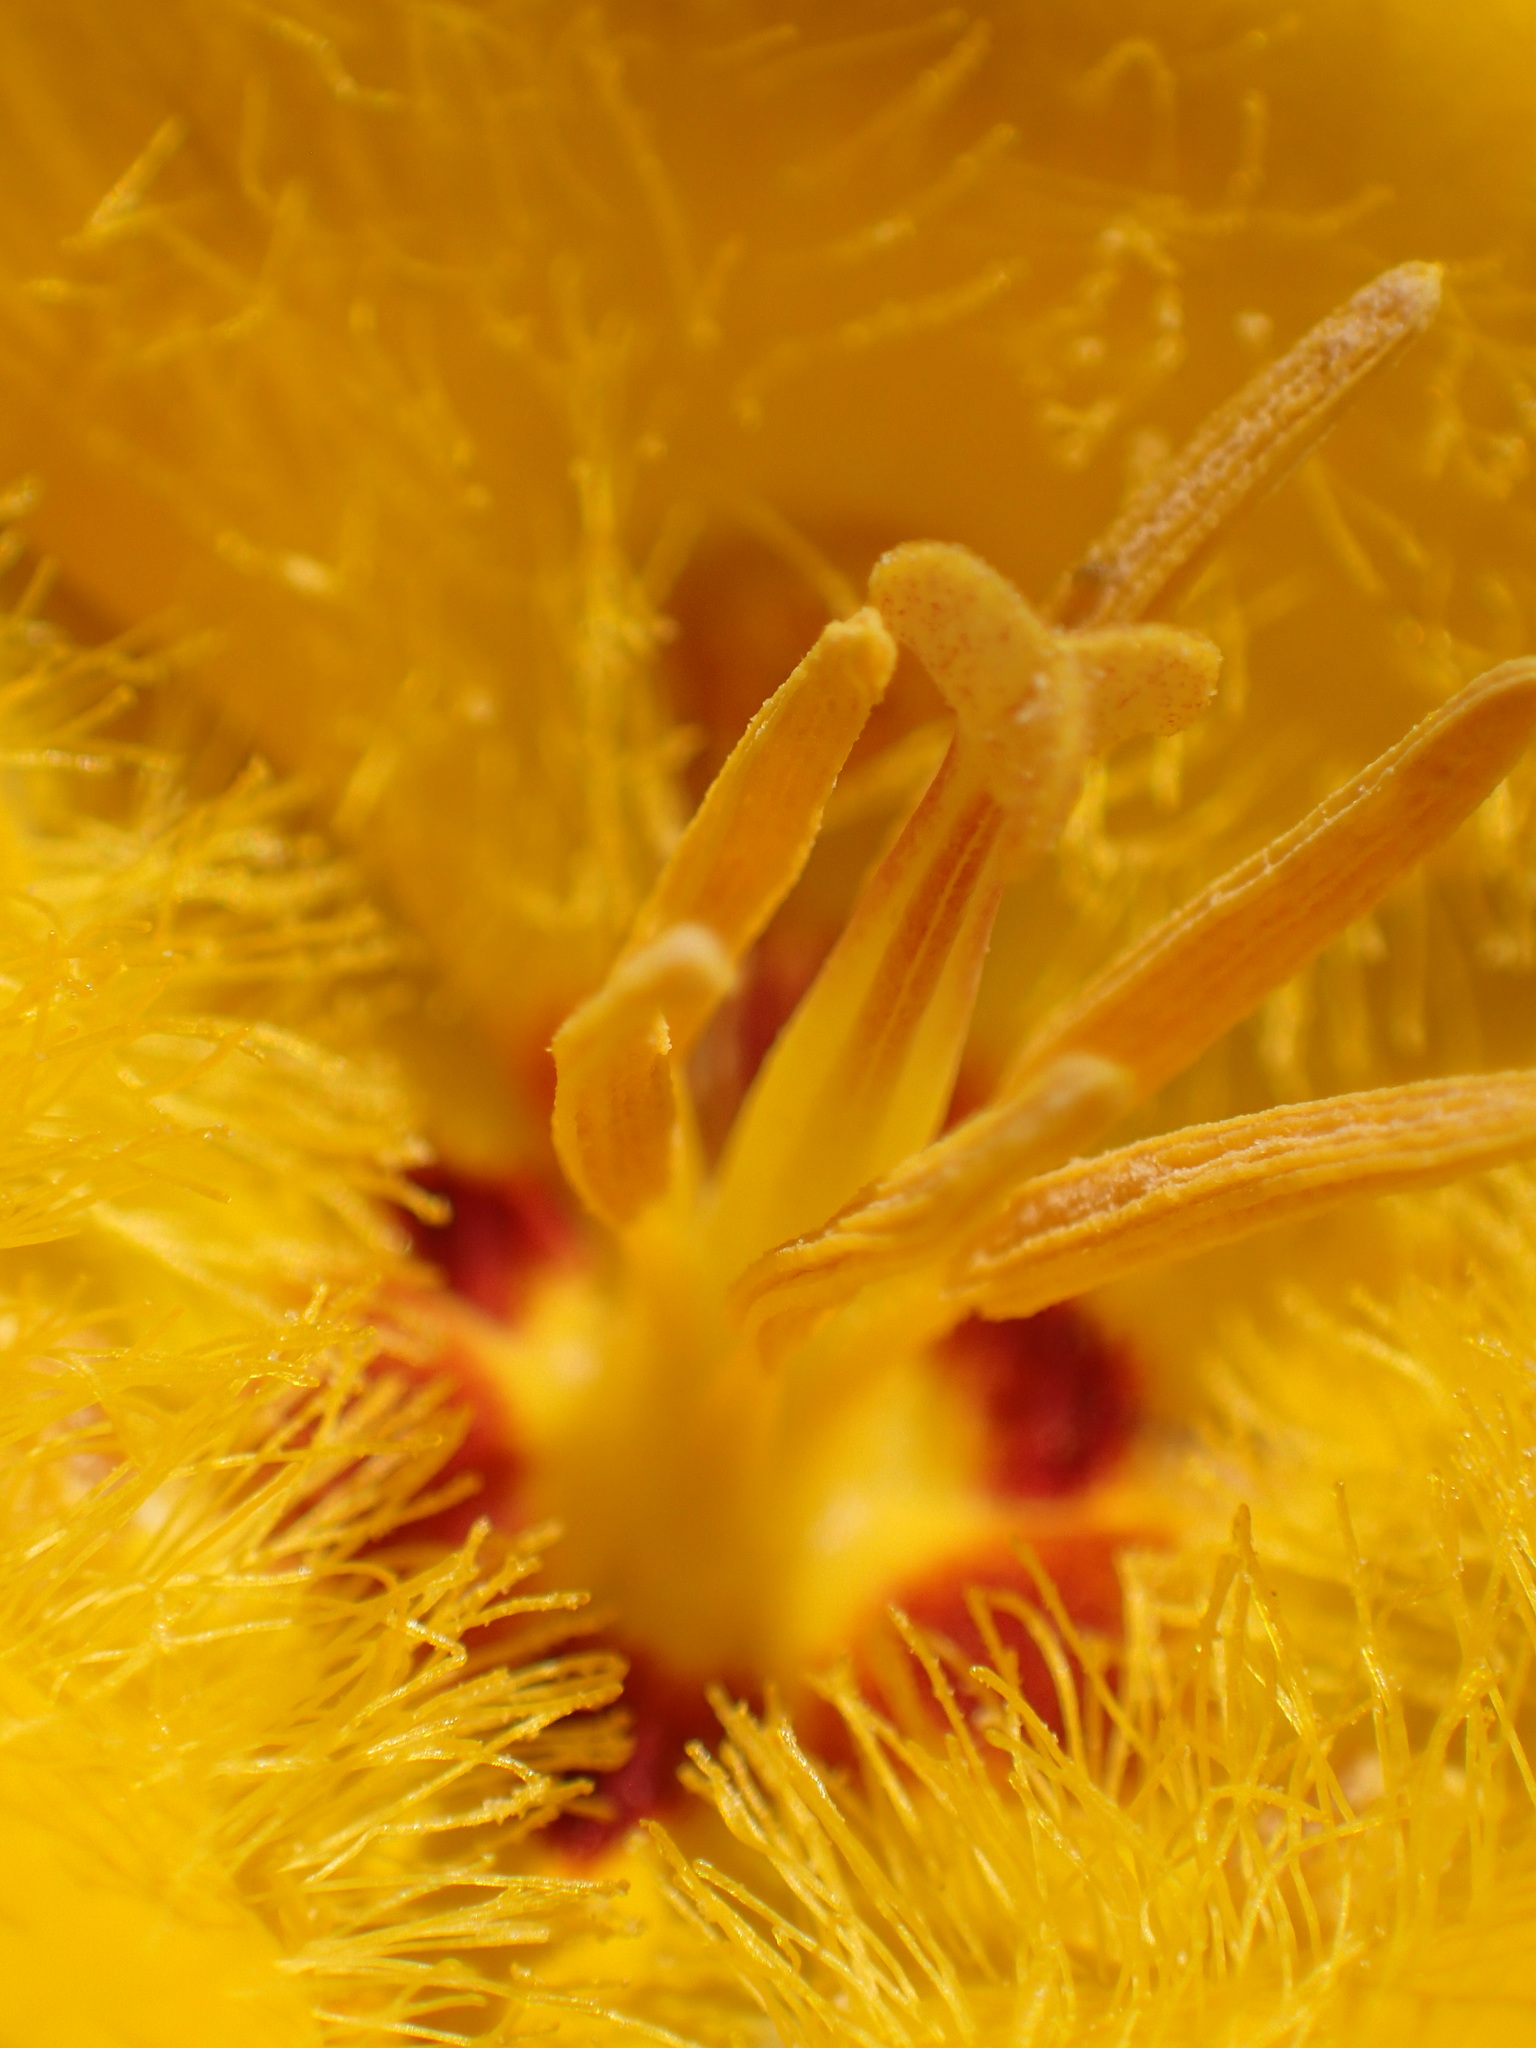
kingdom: Plantae
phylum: Tracheophyta
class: Liliopsida
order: Liliales
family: Liliaceae
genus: Calochortus
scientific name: Calochortus clavatus
